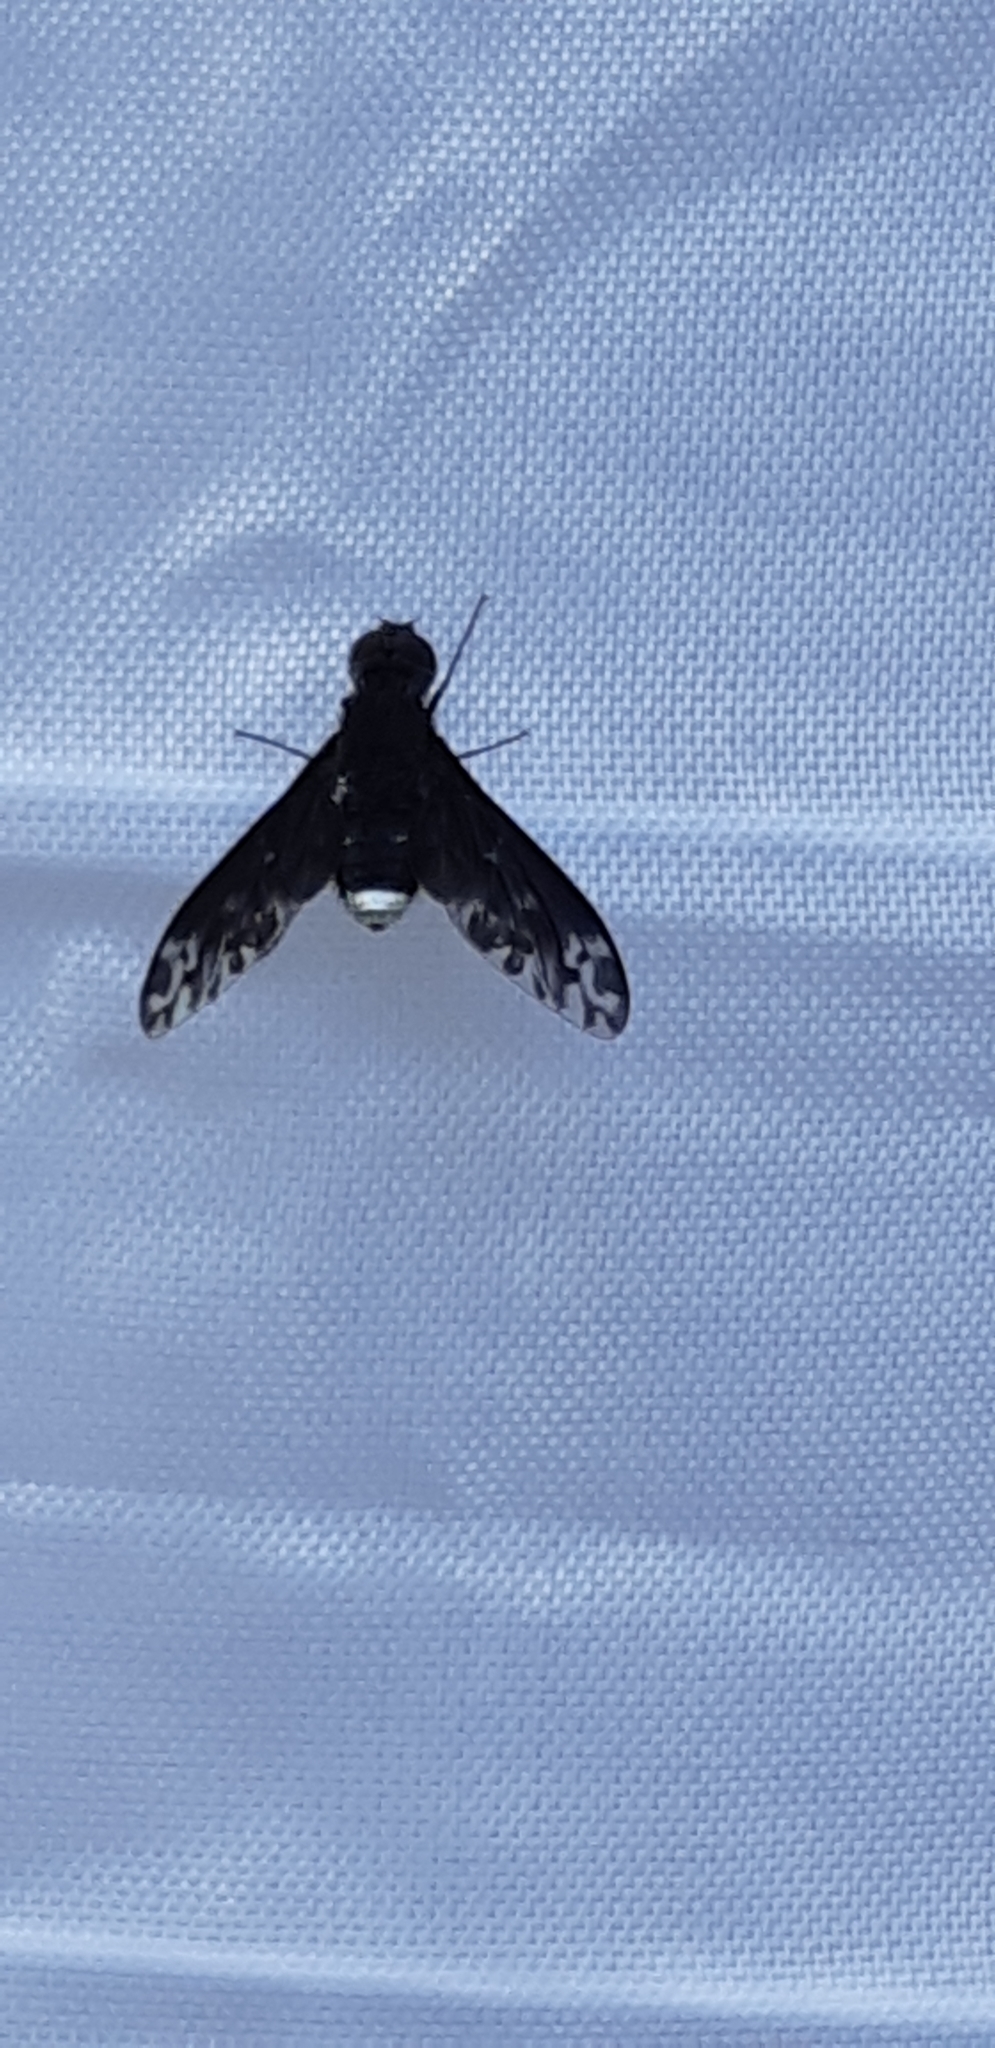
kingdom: Animalia
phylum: Arthropoda
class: Insecta
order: Diptera
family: Bombyliidae
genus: Anthrax
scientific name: Anthrax confluensis
